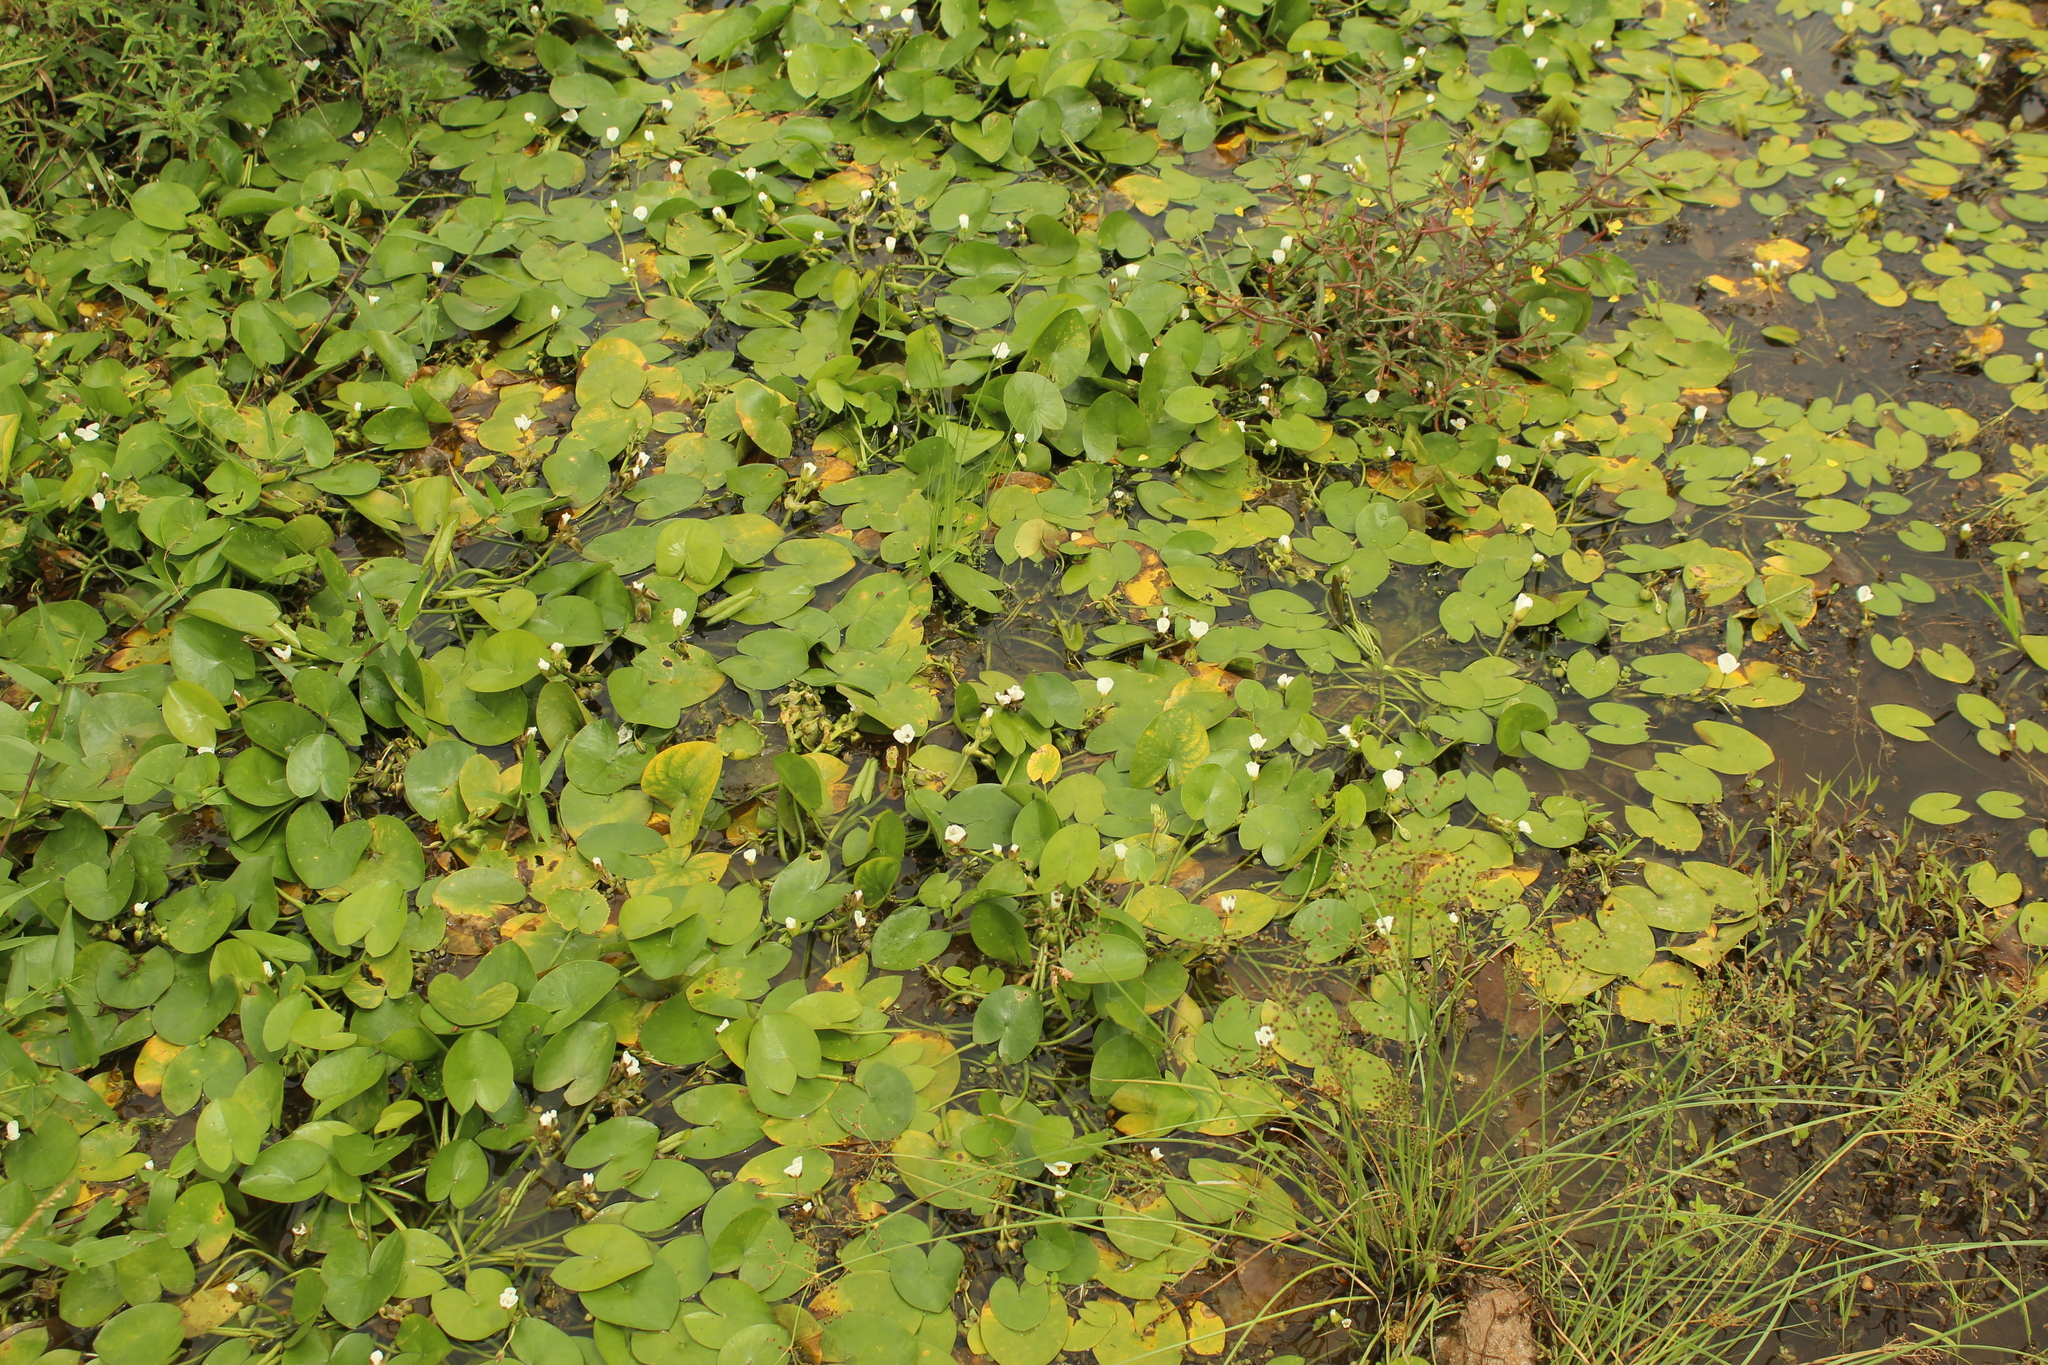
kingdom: Plantae
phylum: Tracheophyta
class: Liliopsida
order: Alismatales
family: Alismataceae
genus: Sagittaria
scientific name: Sagittaria guayanensis
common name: Guyanese arrowhead
